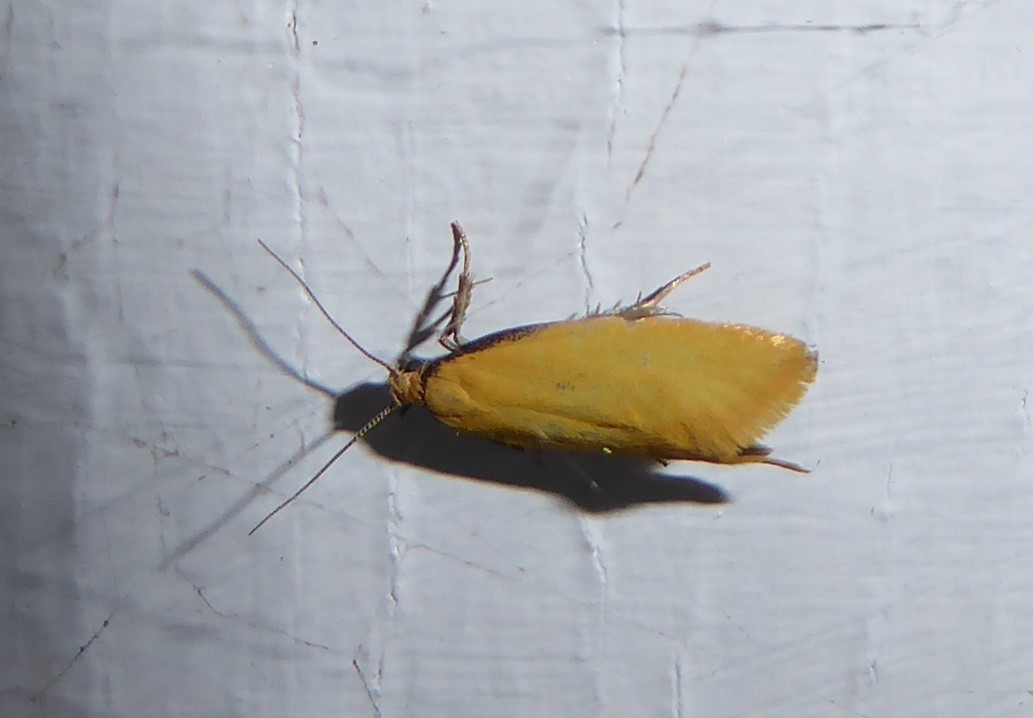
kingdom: Animalia
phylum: Arthropoda
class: Insecta
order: Lepidoptera
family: Oecophoridae
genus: Tingena
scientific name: Tingena actinias
